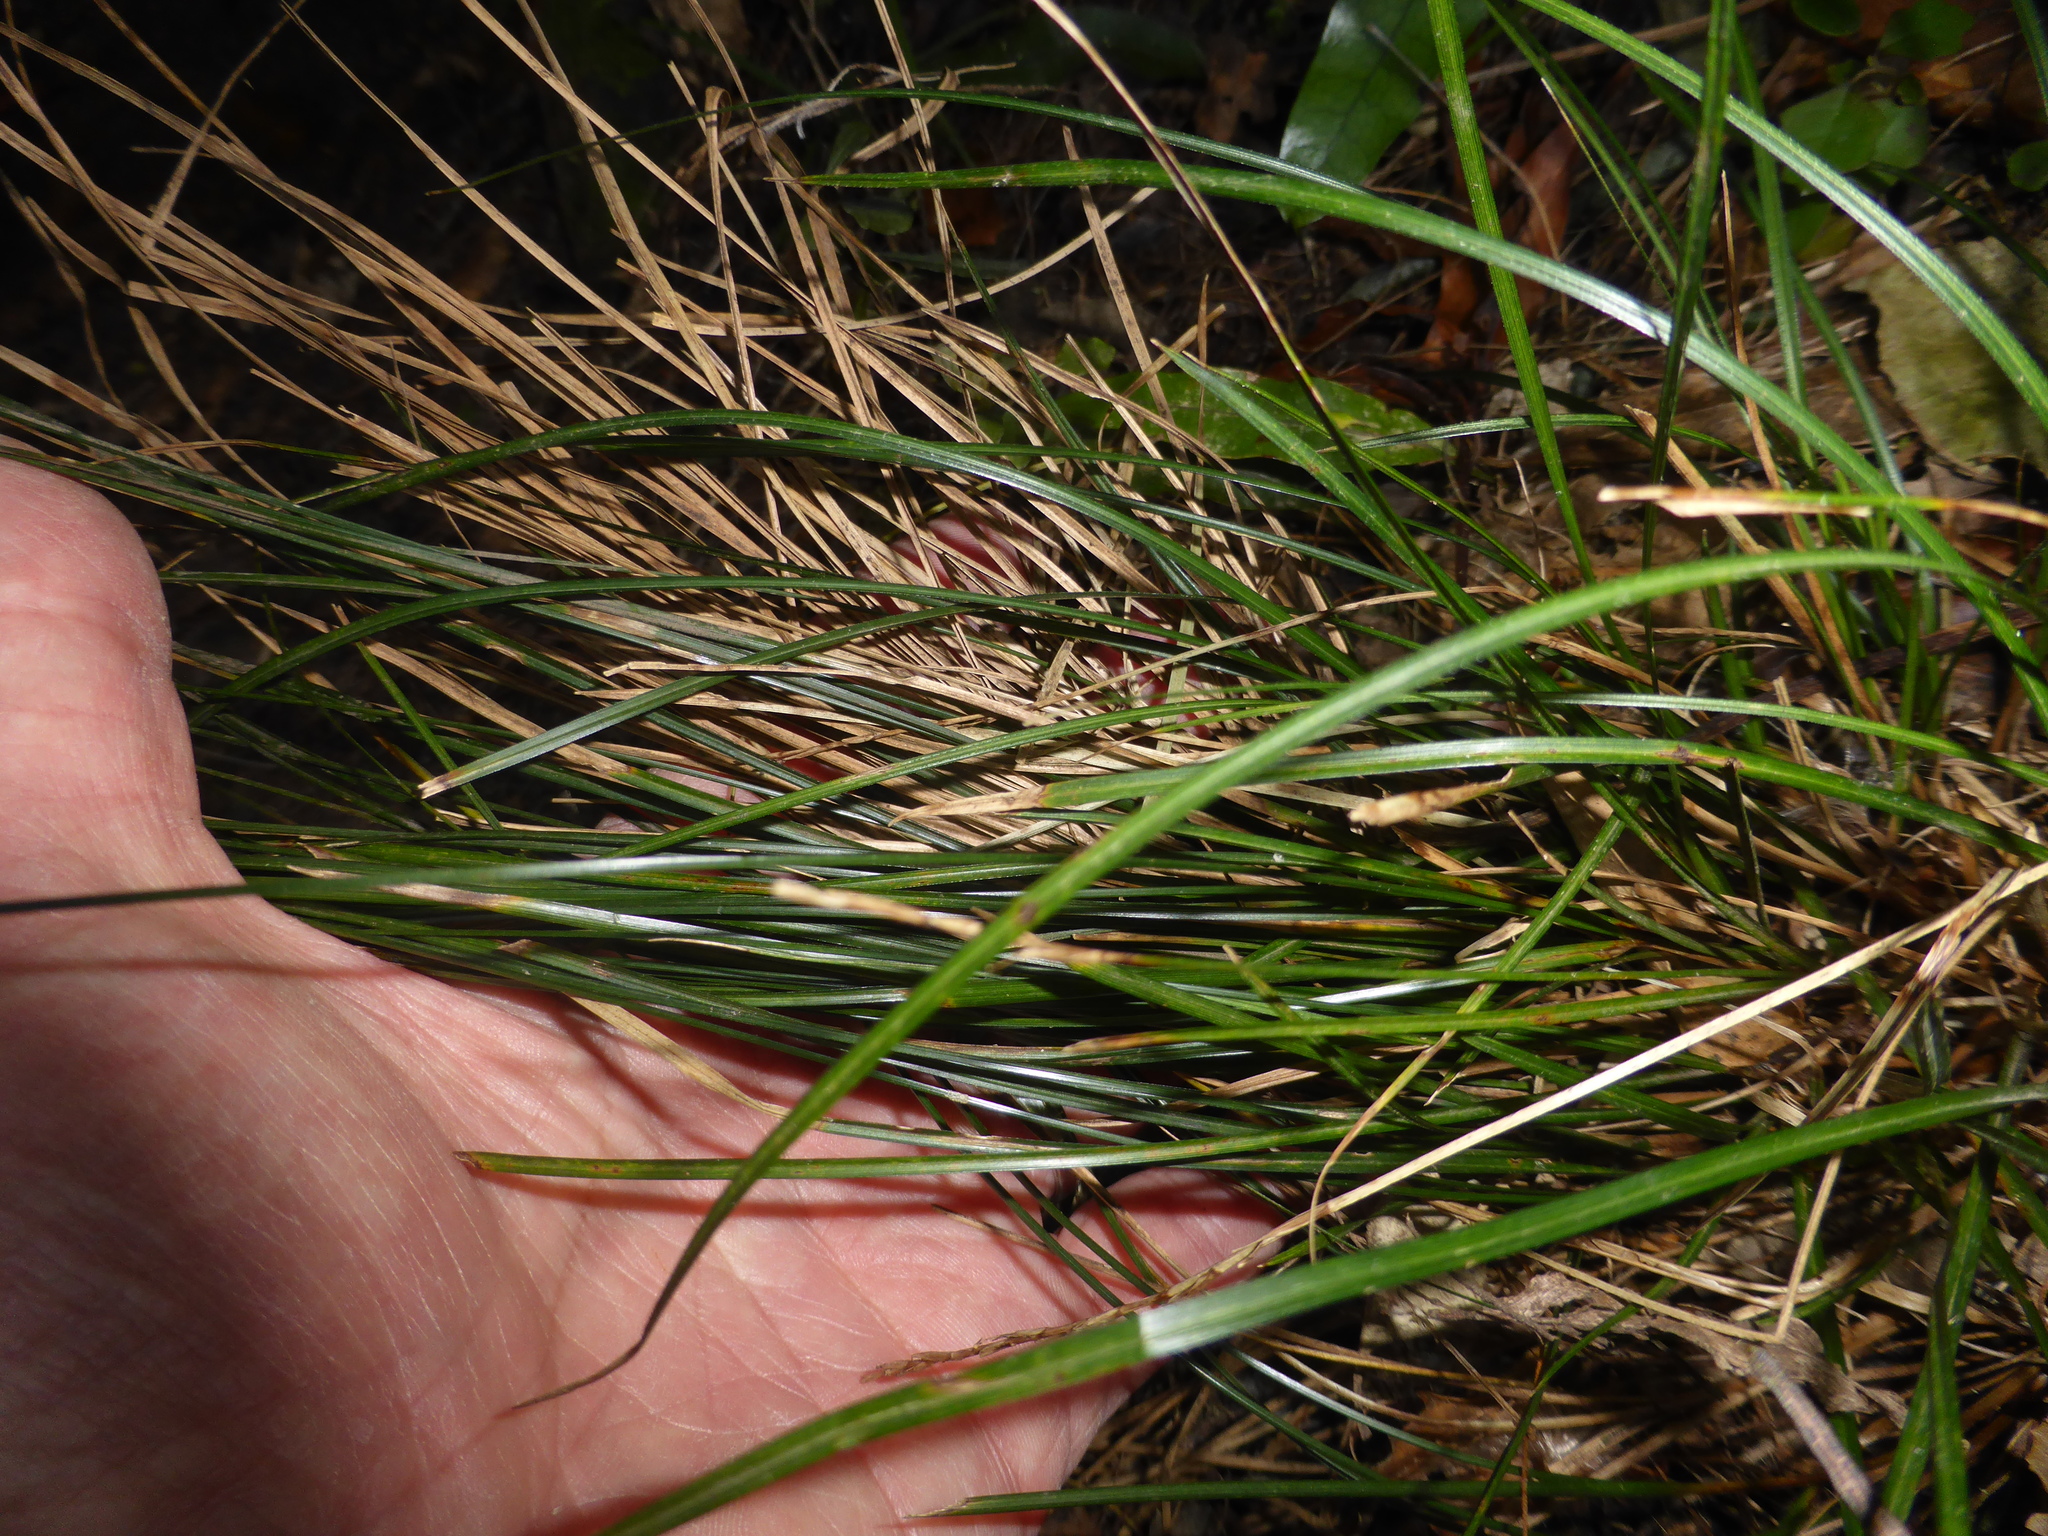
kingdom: Plantae
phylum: Tracheophyta
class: Liliopsida
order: Poales
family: Cyperaceae
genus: Carex
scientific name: Carex uncinata
